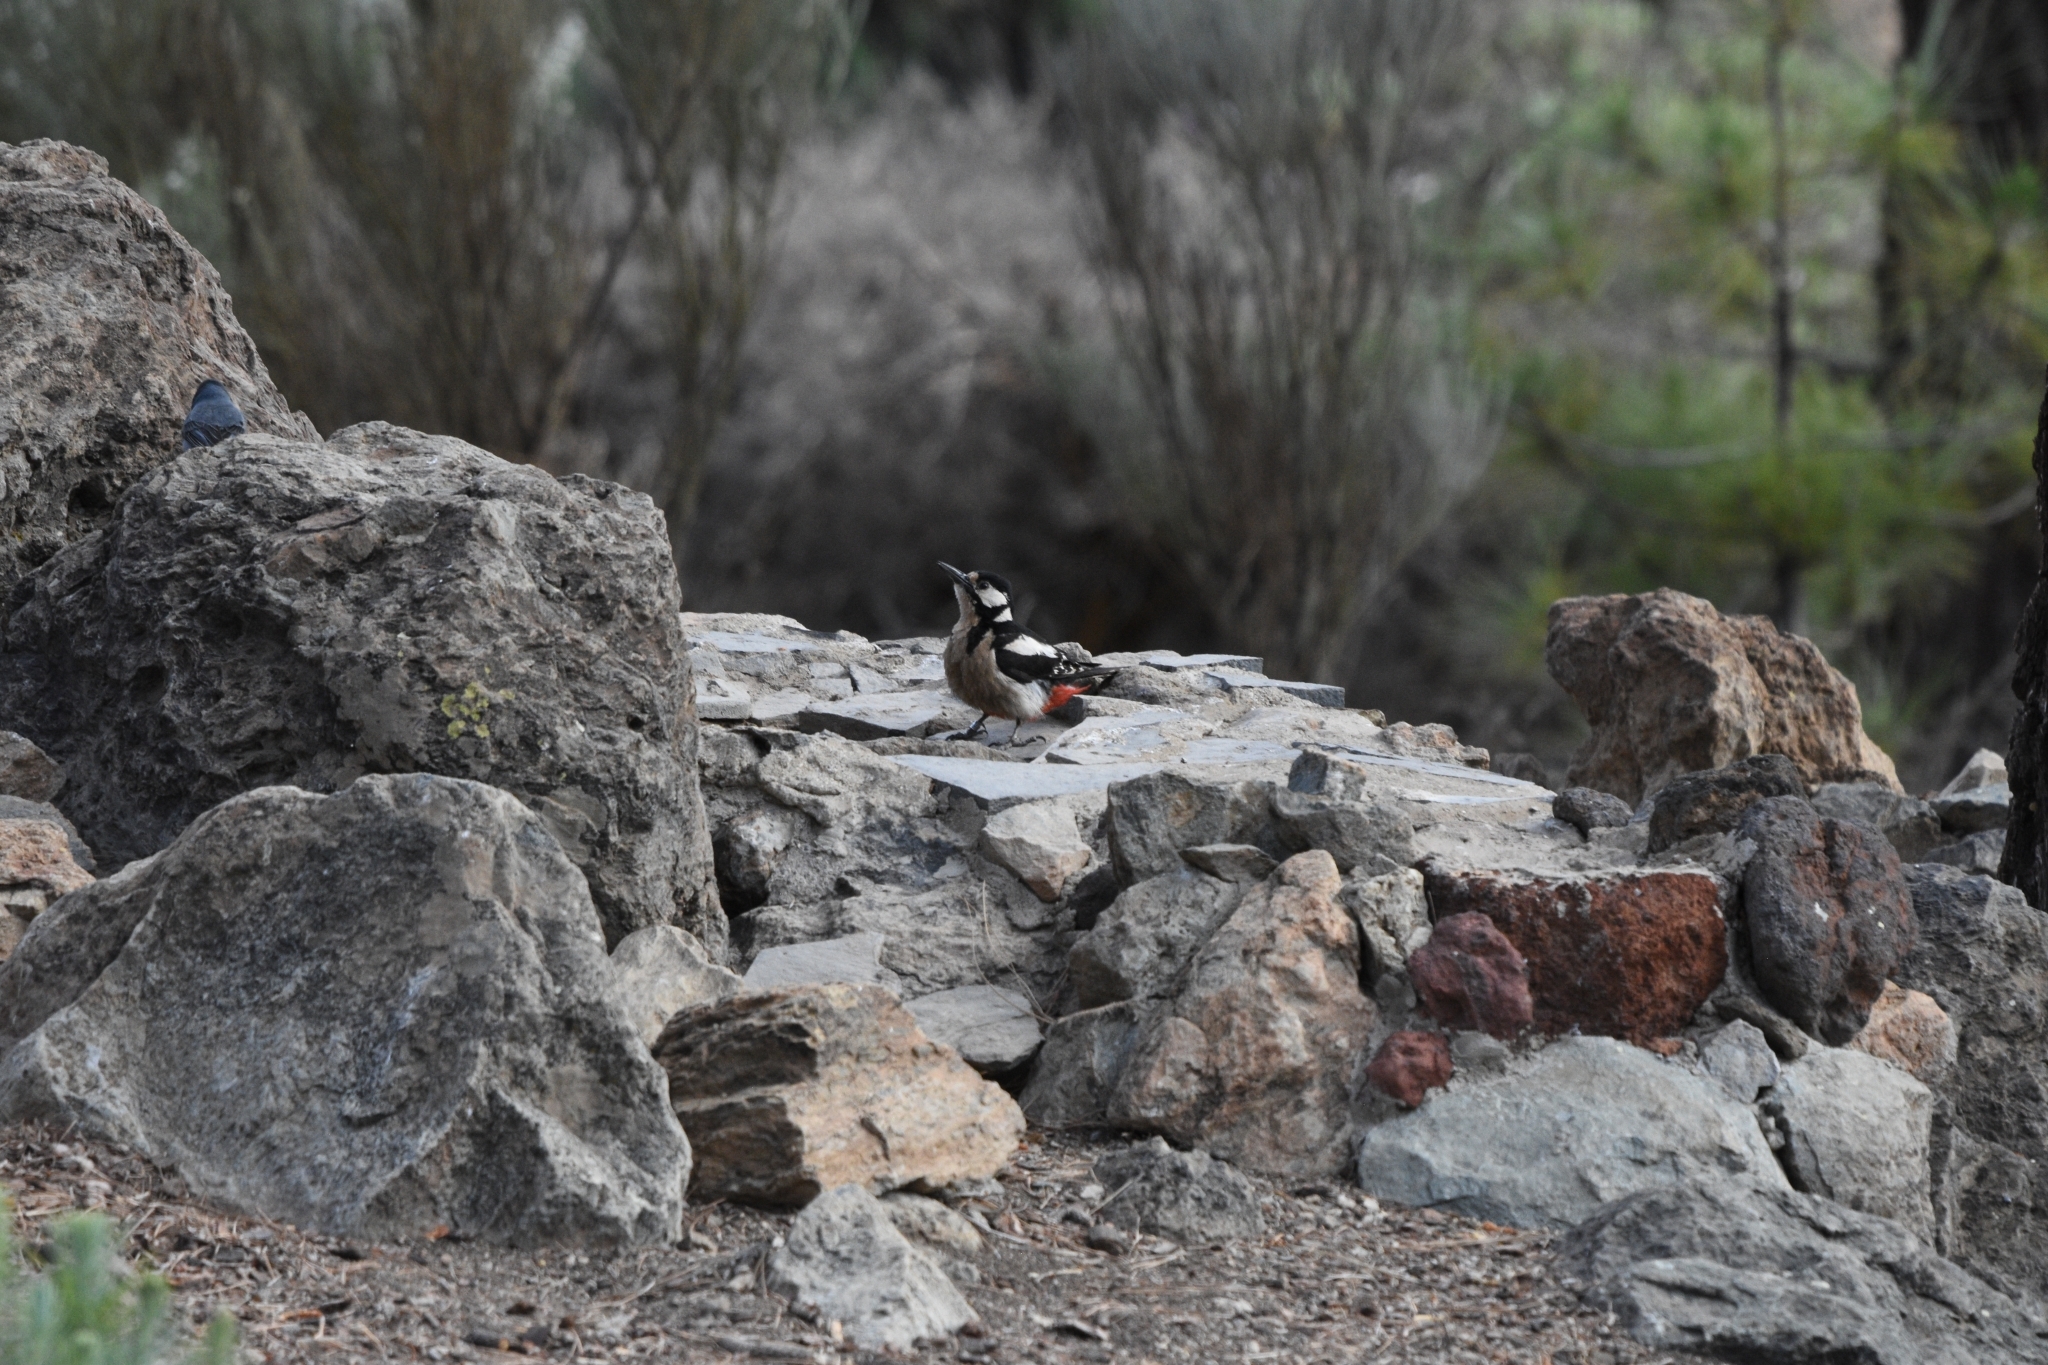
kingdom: Animalia
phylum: Chordata
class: Aves
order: Piciformes
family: Picidae
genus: Dendrocopos
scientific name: Dendrocopos major
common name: Great spotted woodpecker
